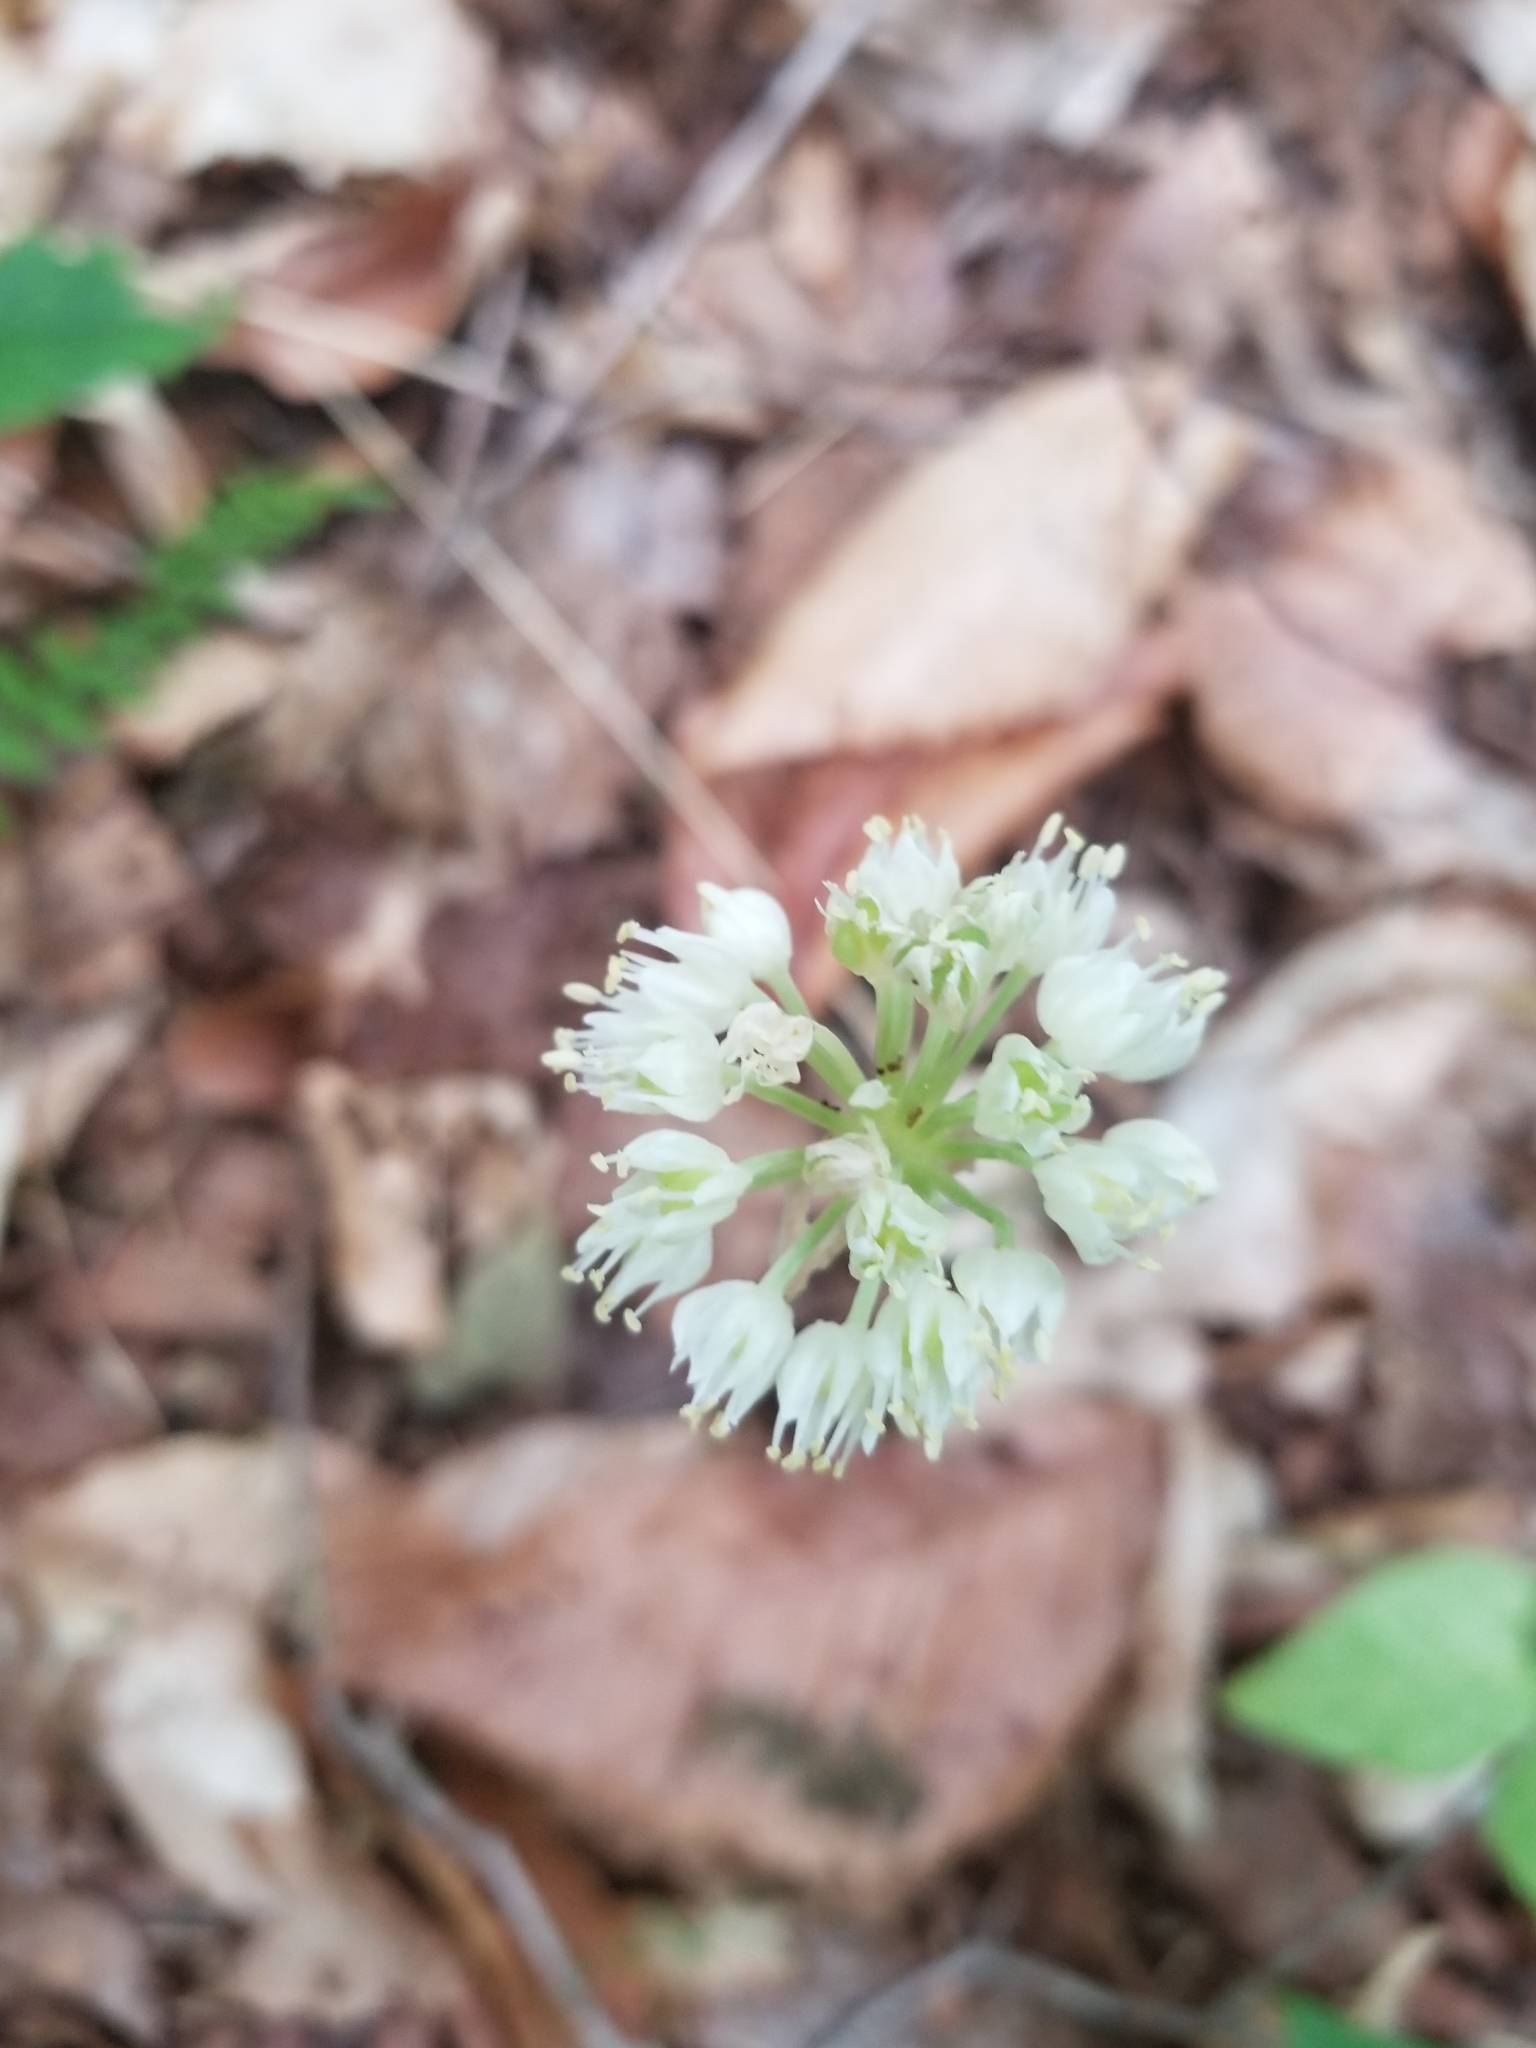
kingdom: Plantae
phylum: Tracheophyta
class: Liliopsida
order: Asparagales
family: Amaryllidaceae
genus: Allium
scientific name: Allium tricoccum
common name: Ramp
